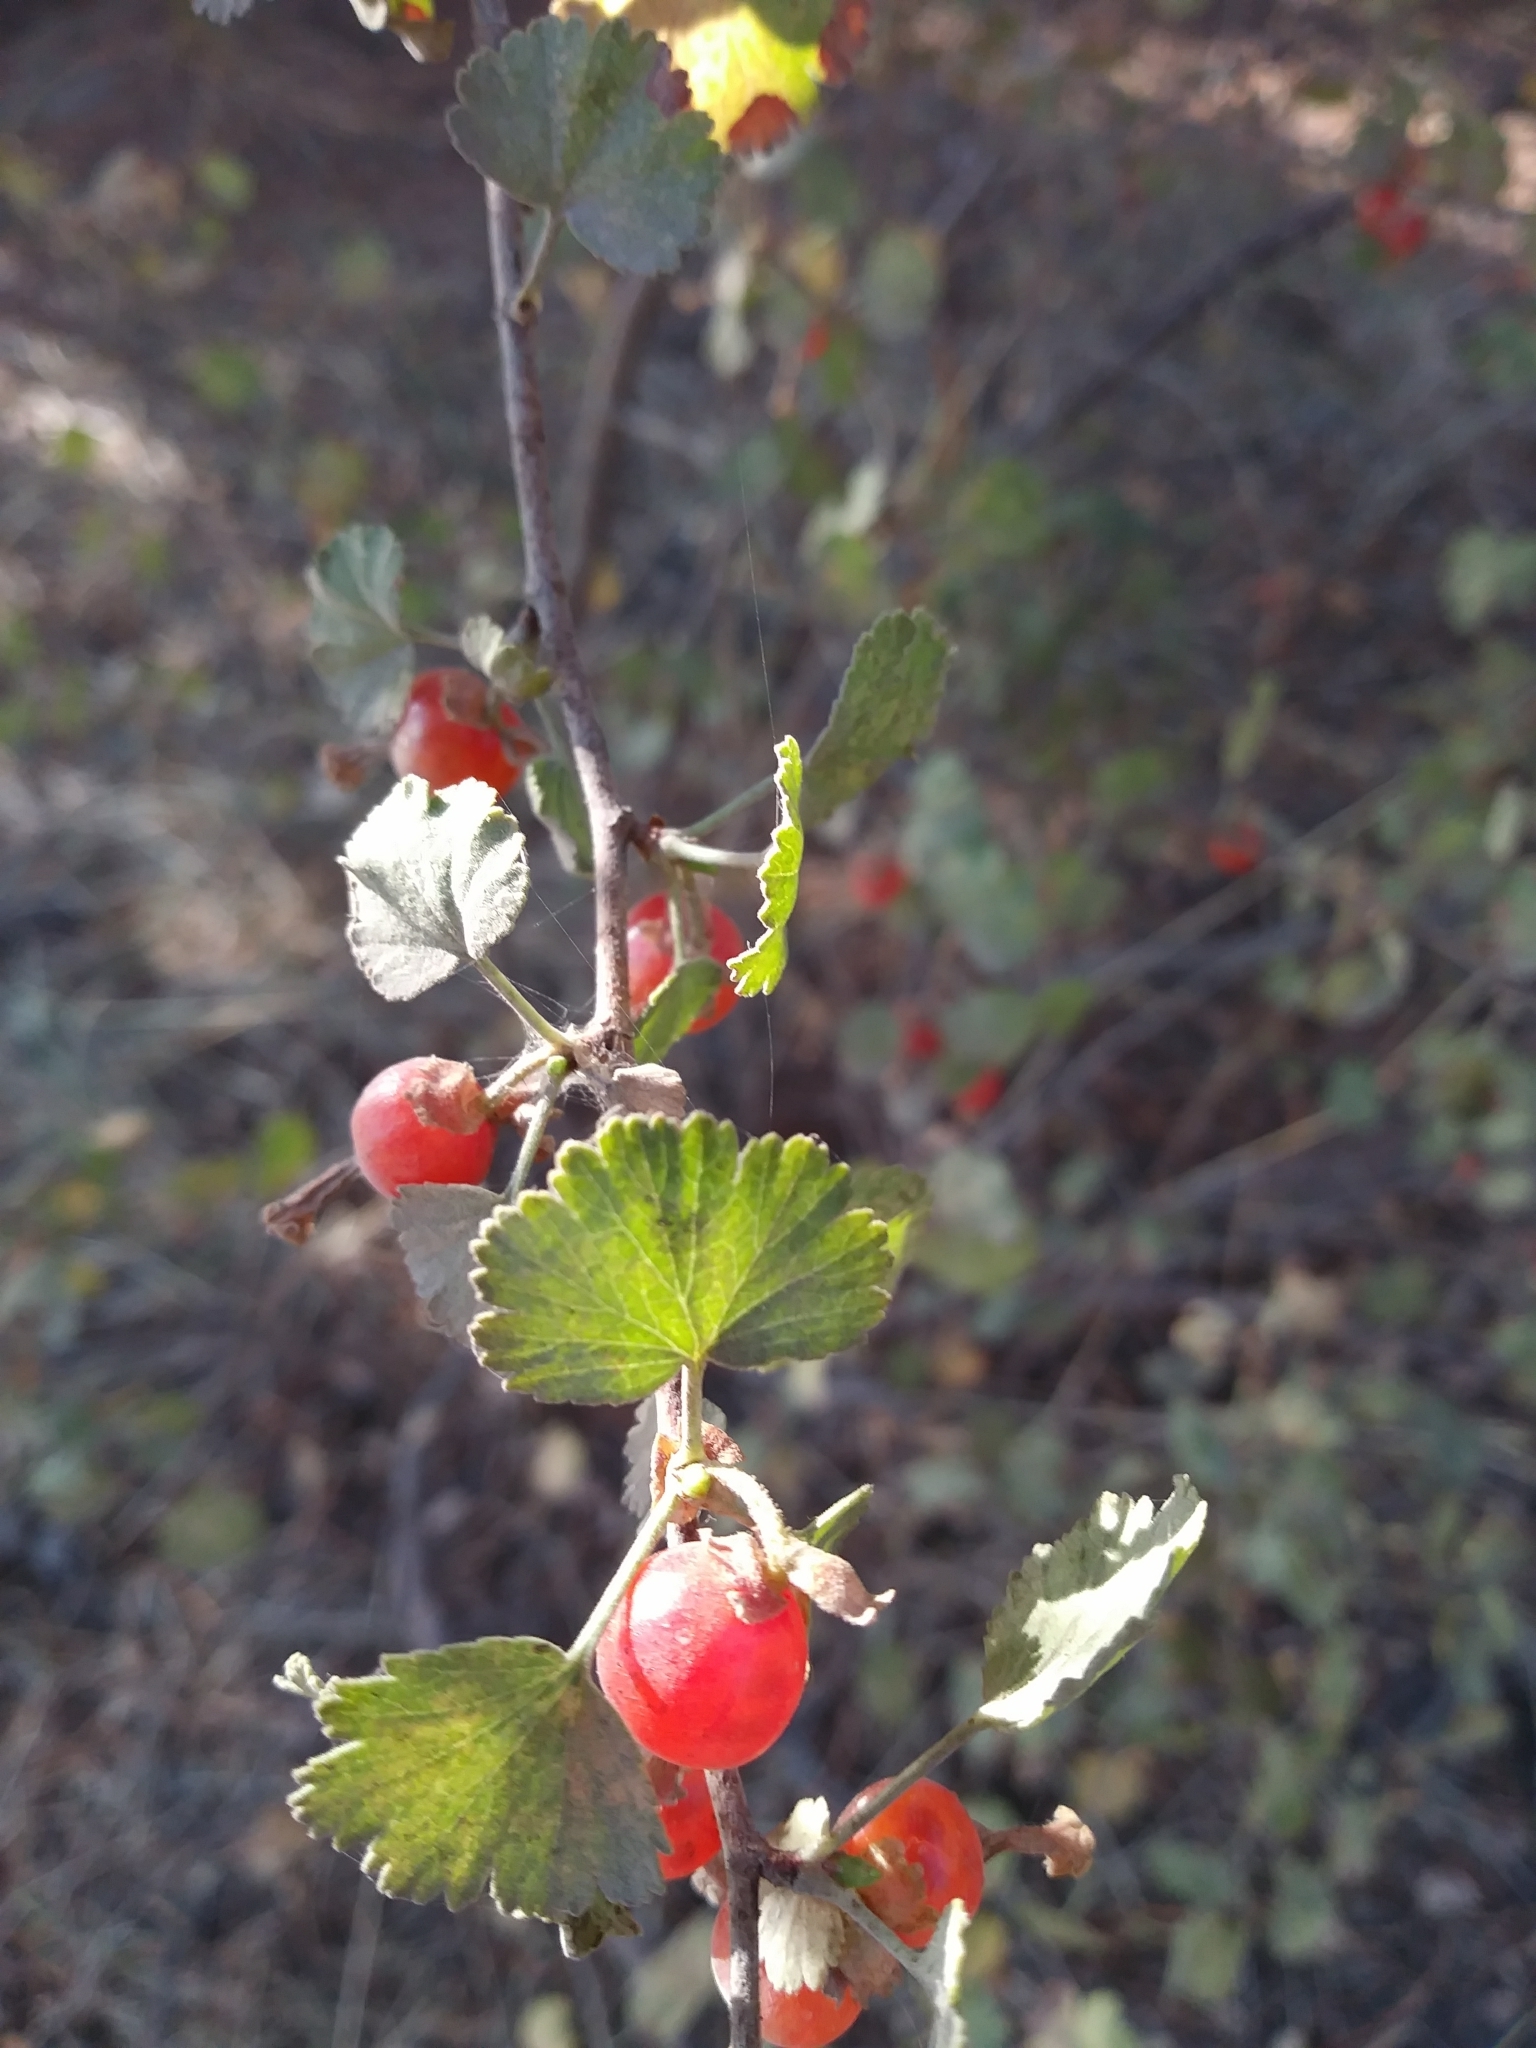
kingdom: Plantae
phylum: Tracheophyta
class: Magnoliopsida
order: Saxifragales
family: Grossulariaceae
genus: Ribes
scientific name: Ribes cereum
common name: Wax currant
